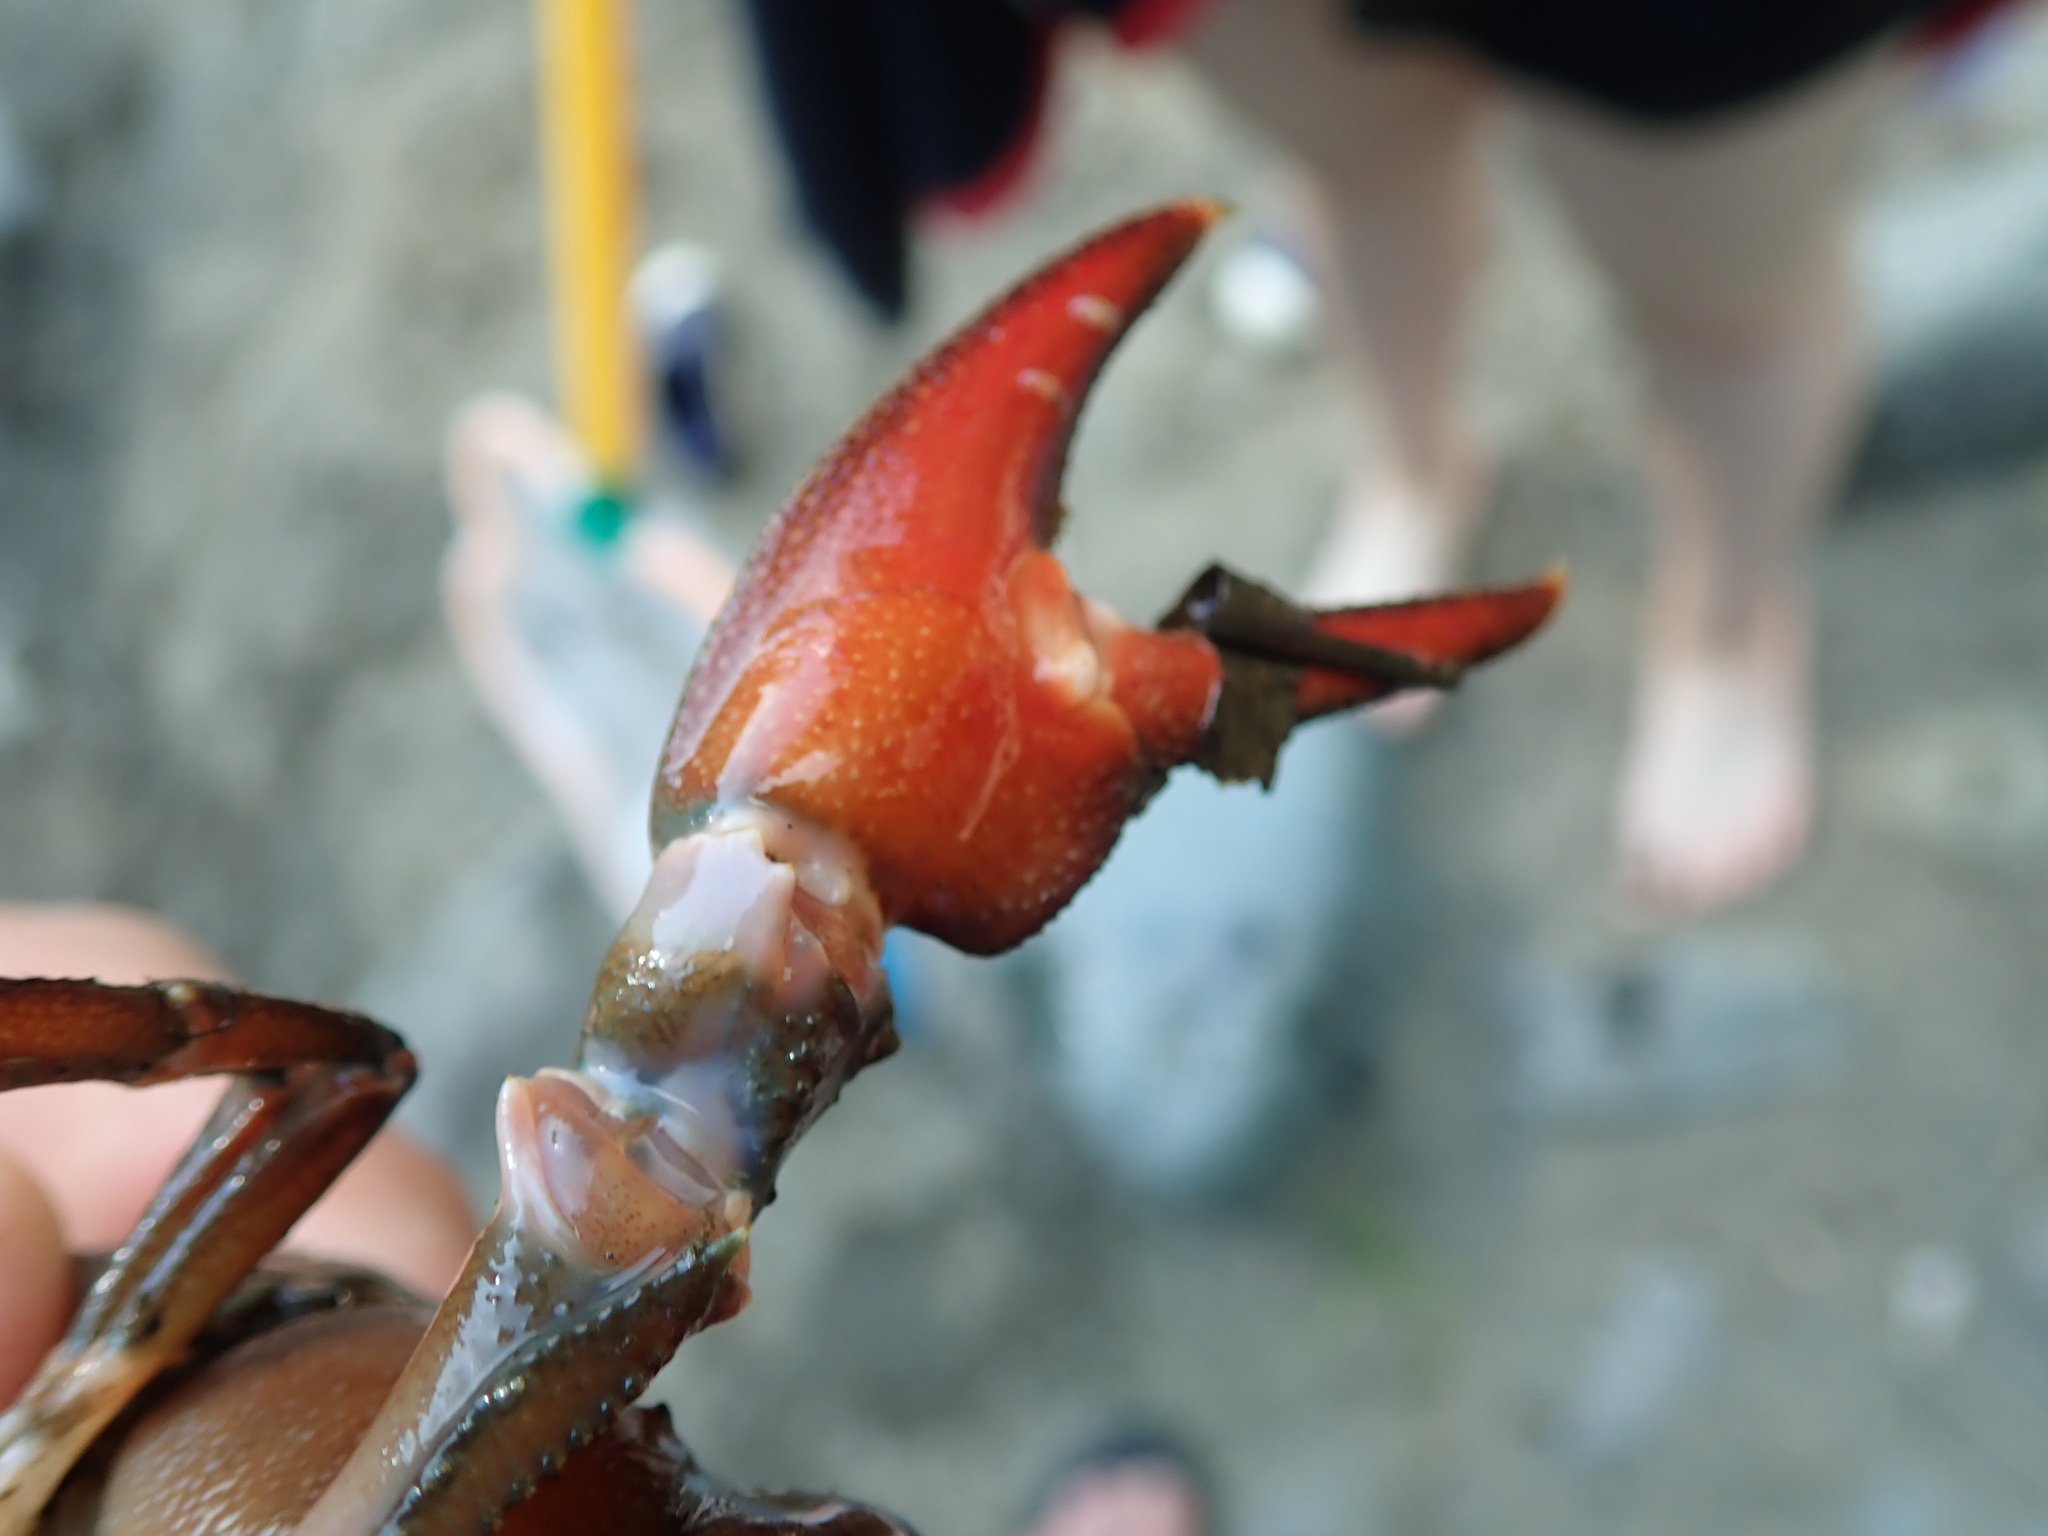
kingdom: Animalia
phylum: Arthropoda
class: Malacostraca
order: Decapoda
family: Astacidae
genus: Pacifastacus
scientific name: Pacifastacus leniusculus
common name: Signal crayfish
